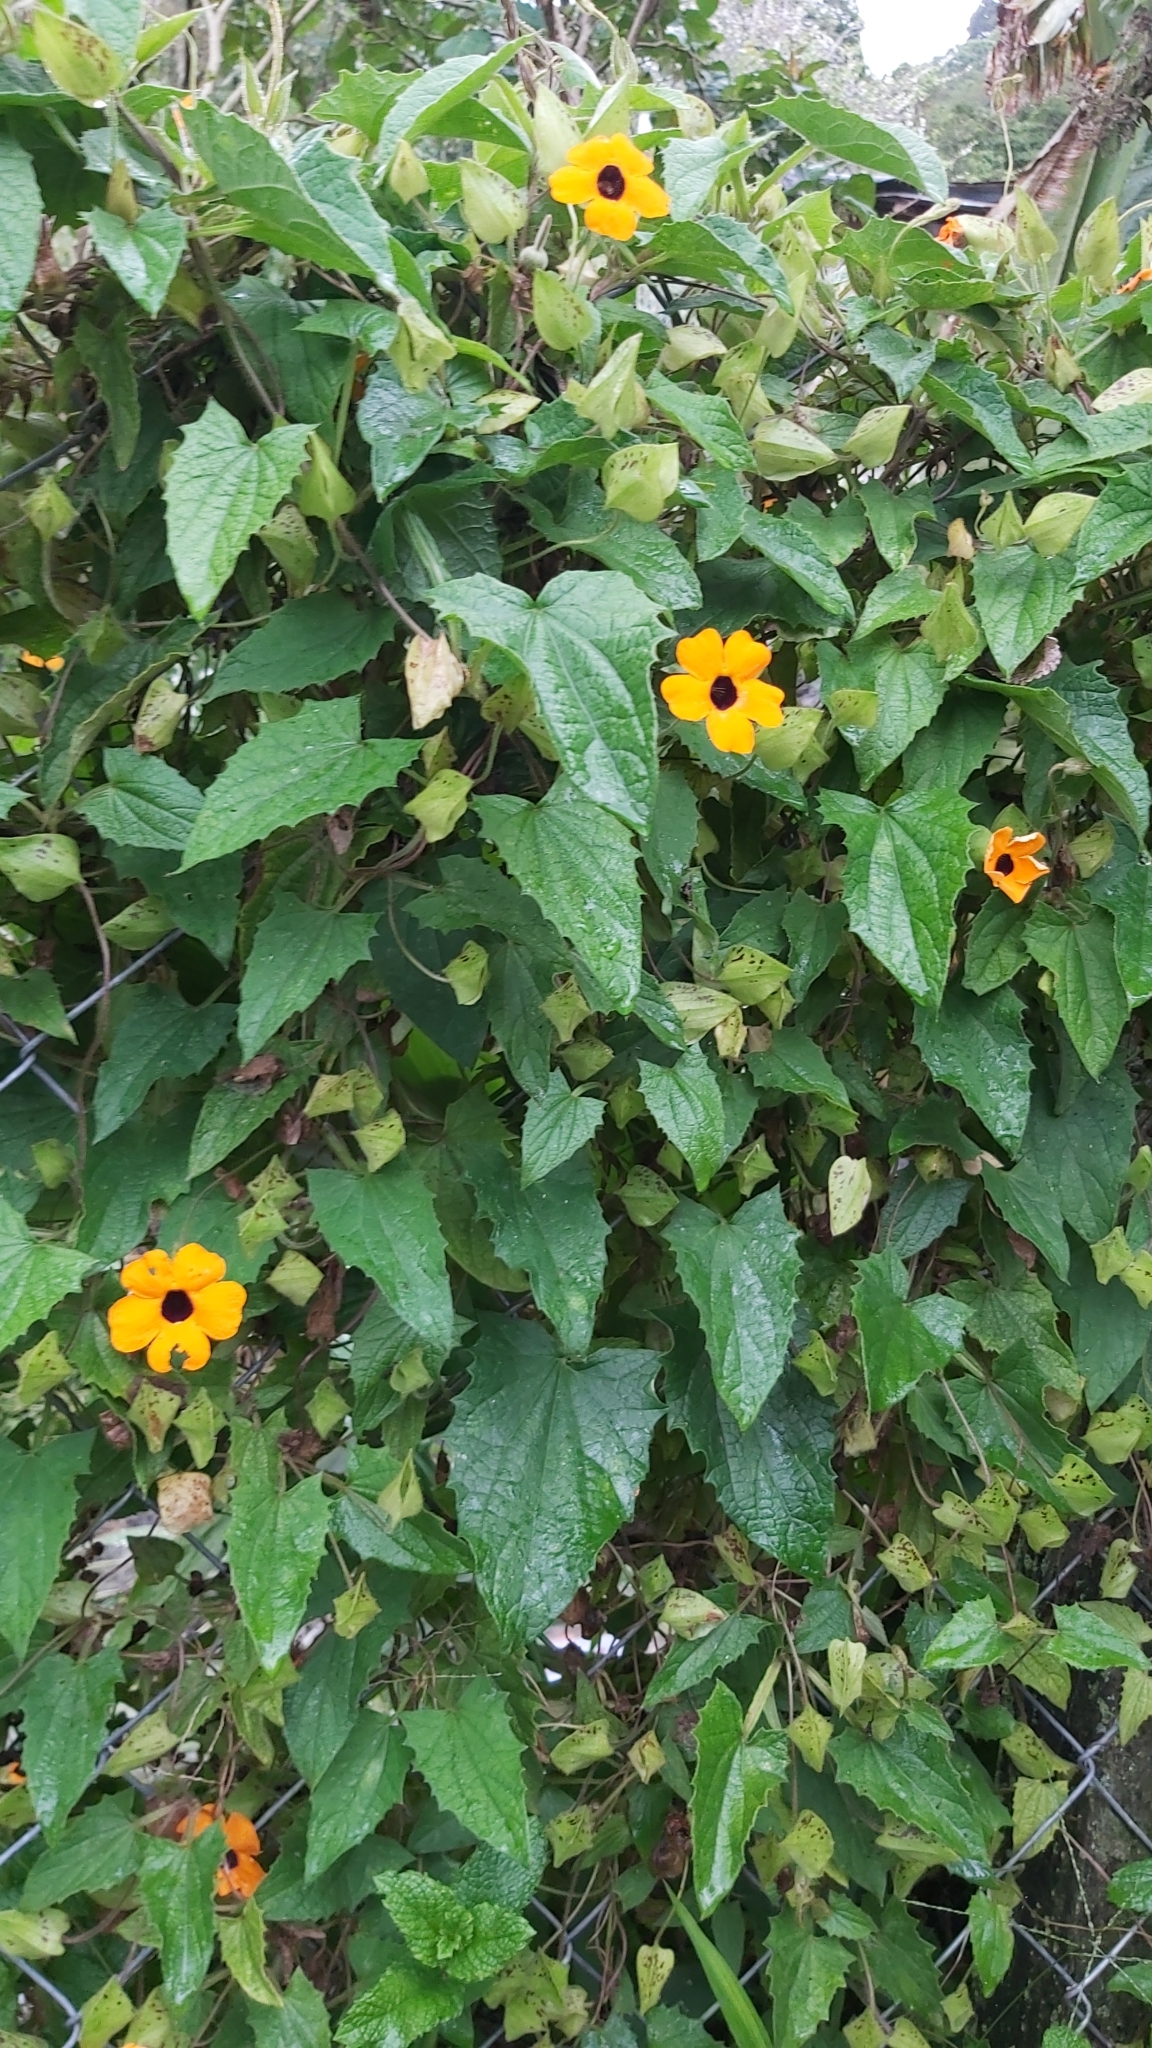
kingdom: Plantae
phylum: Tracheophyta
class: Magnoliopsida
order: Lamiales
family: Acanthaceae
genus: Thunbergia
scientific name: Thunbergia alata
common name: Blackeyed susan vine
